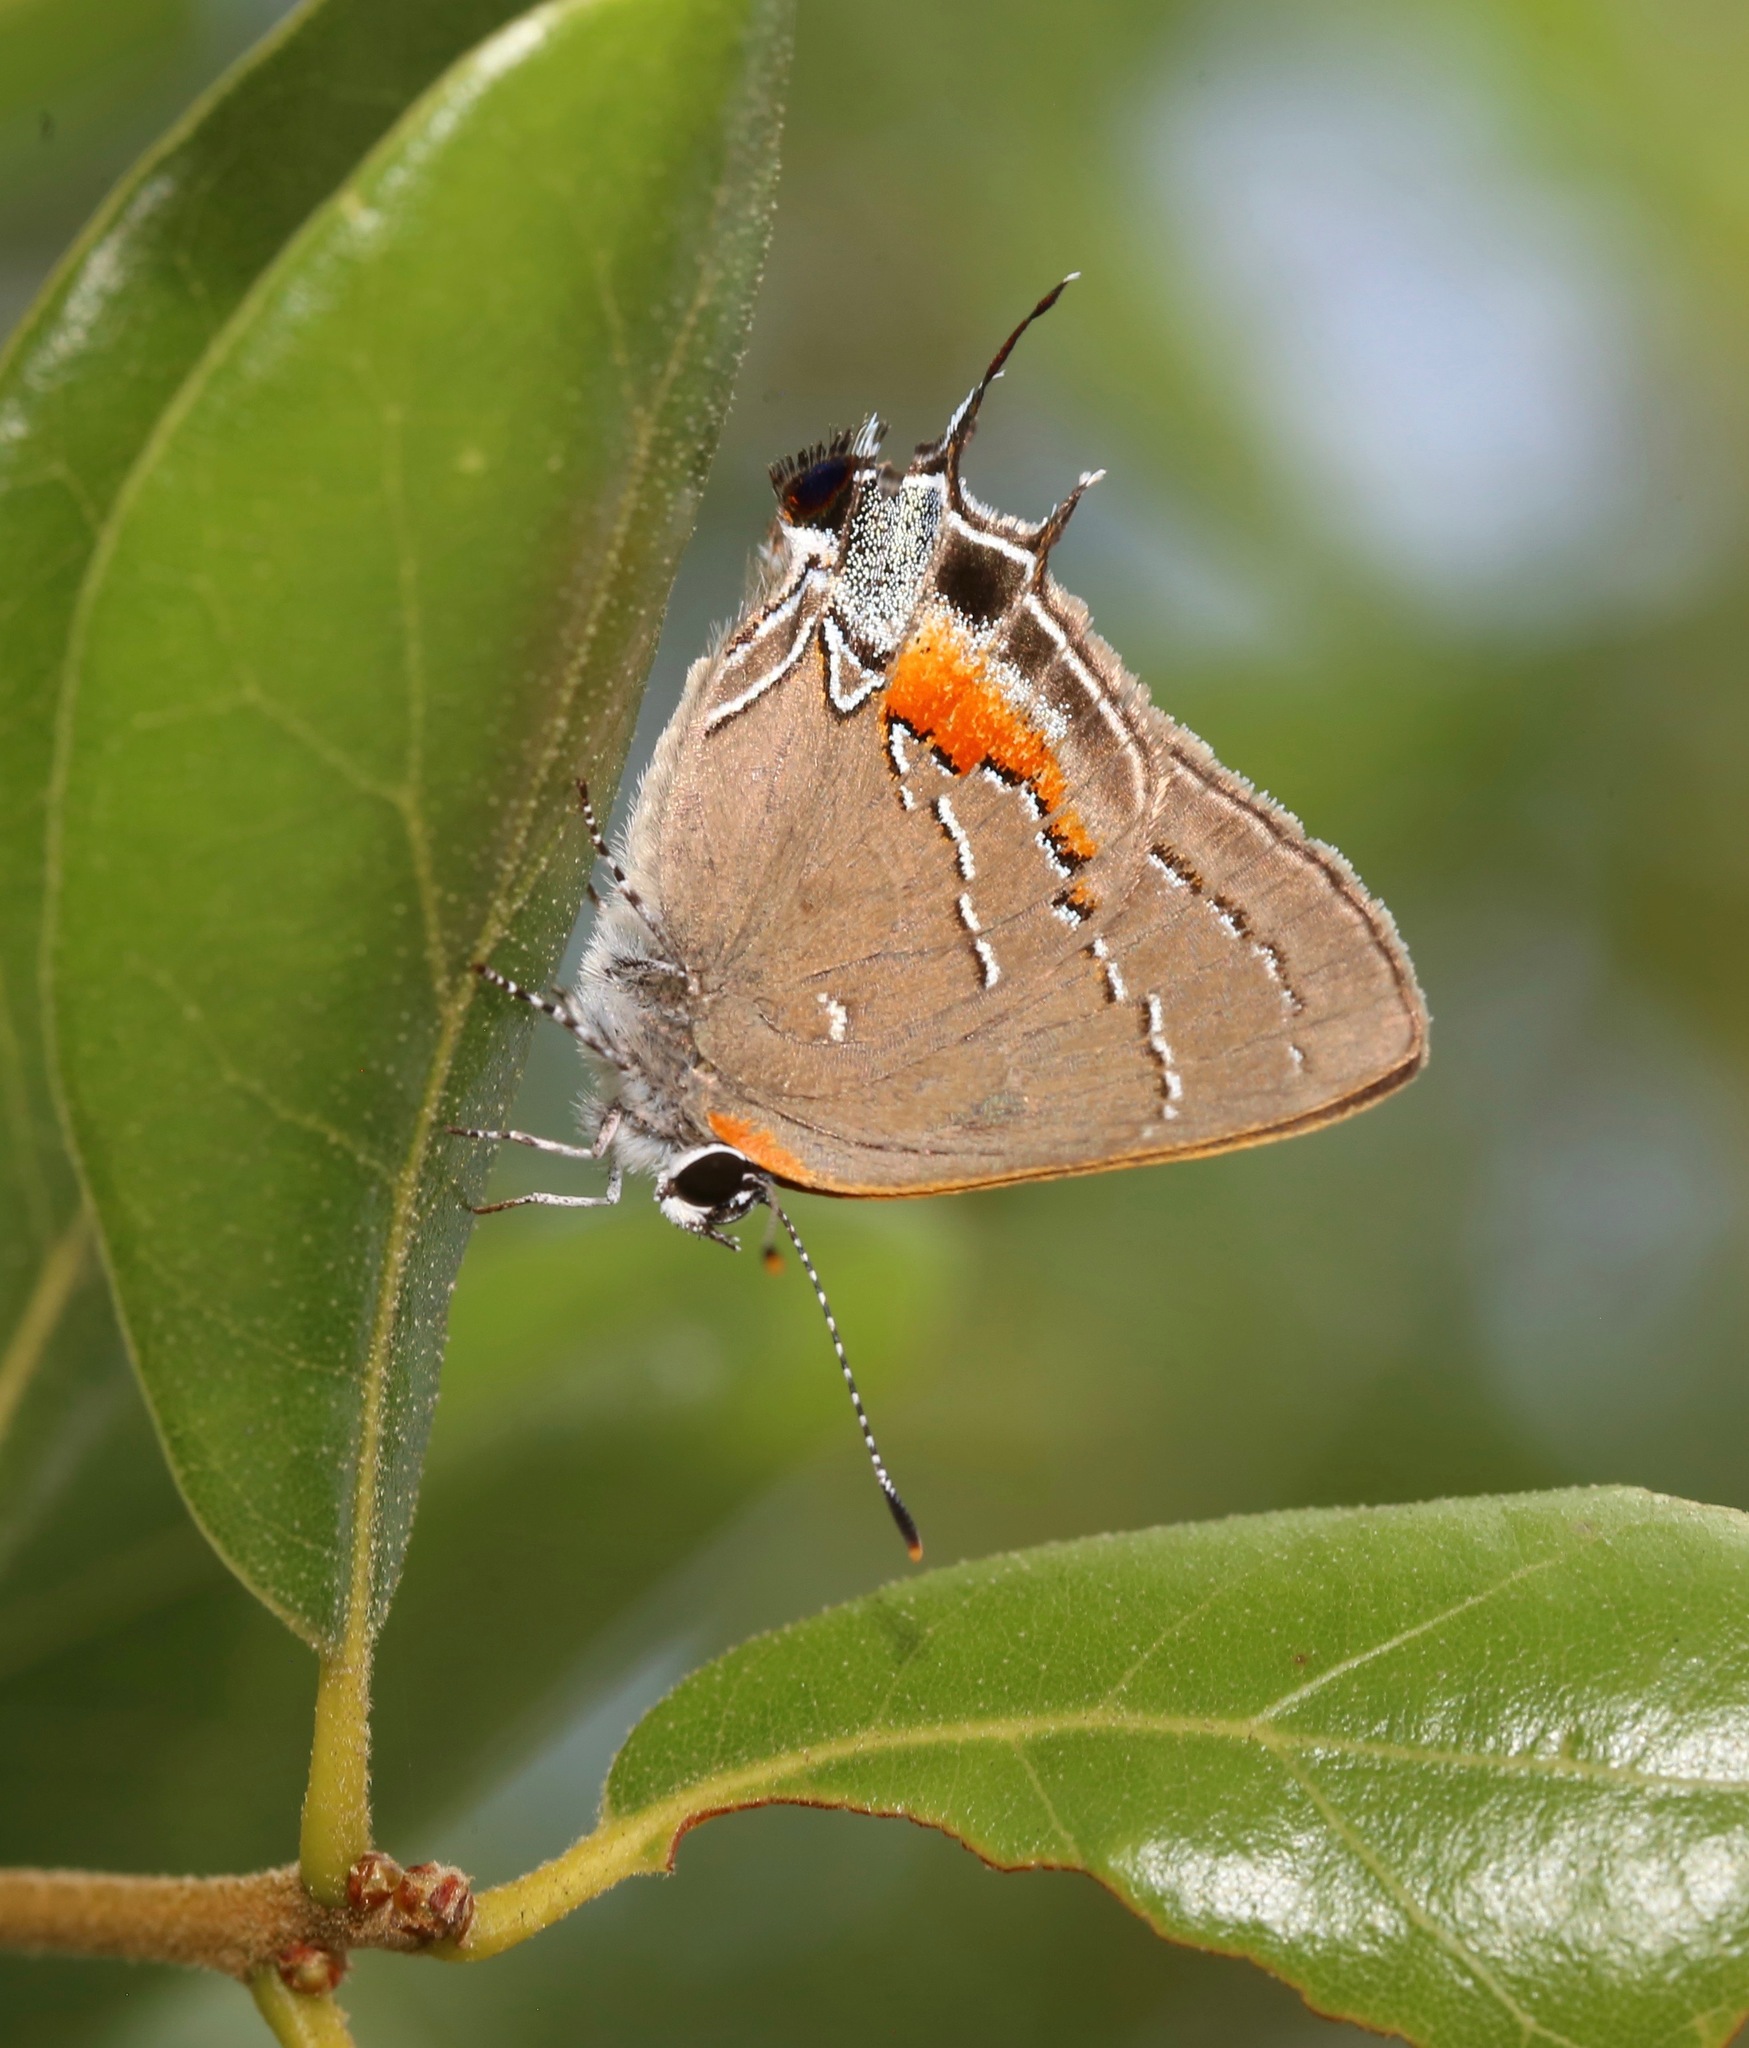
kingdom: Animalia
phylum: Arthropoda
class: Insecta
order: Lepidoptera
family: Lycaenidae
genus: Fixsenia
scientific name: Fixsenia favonius
